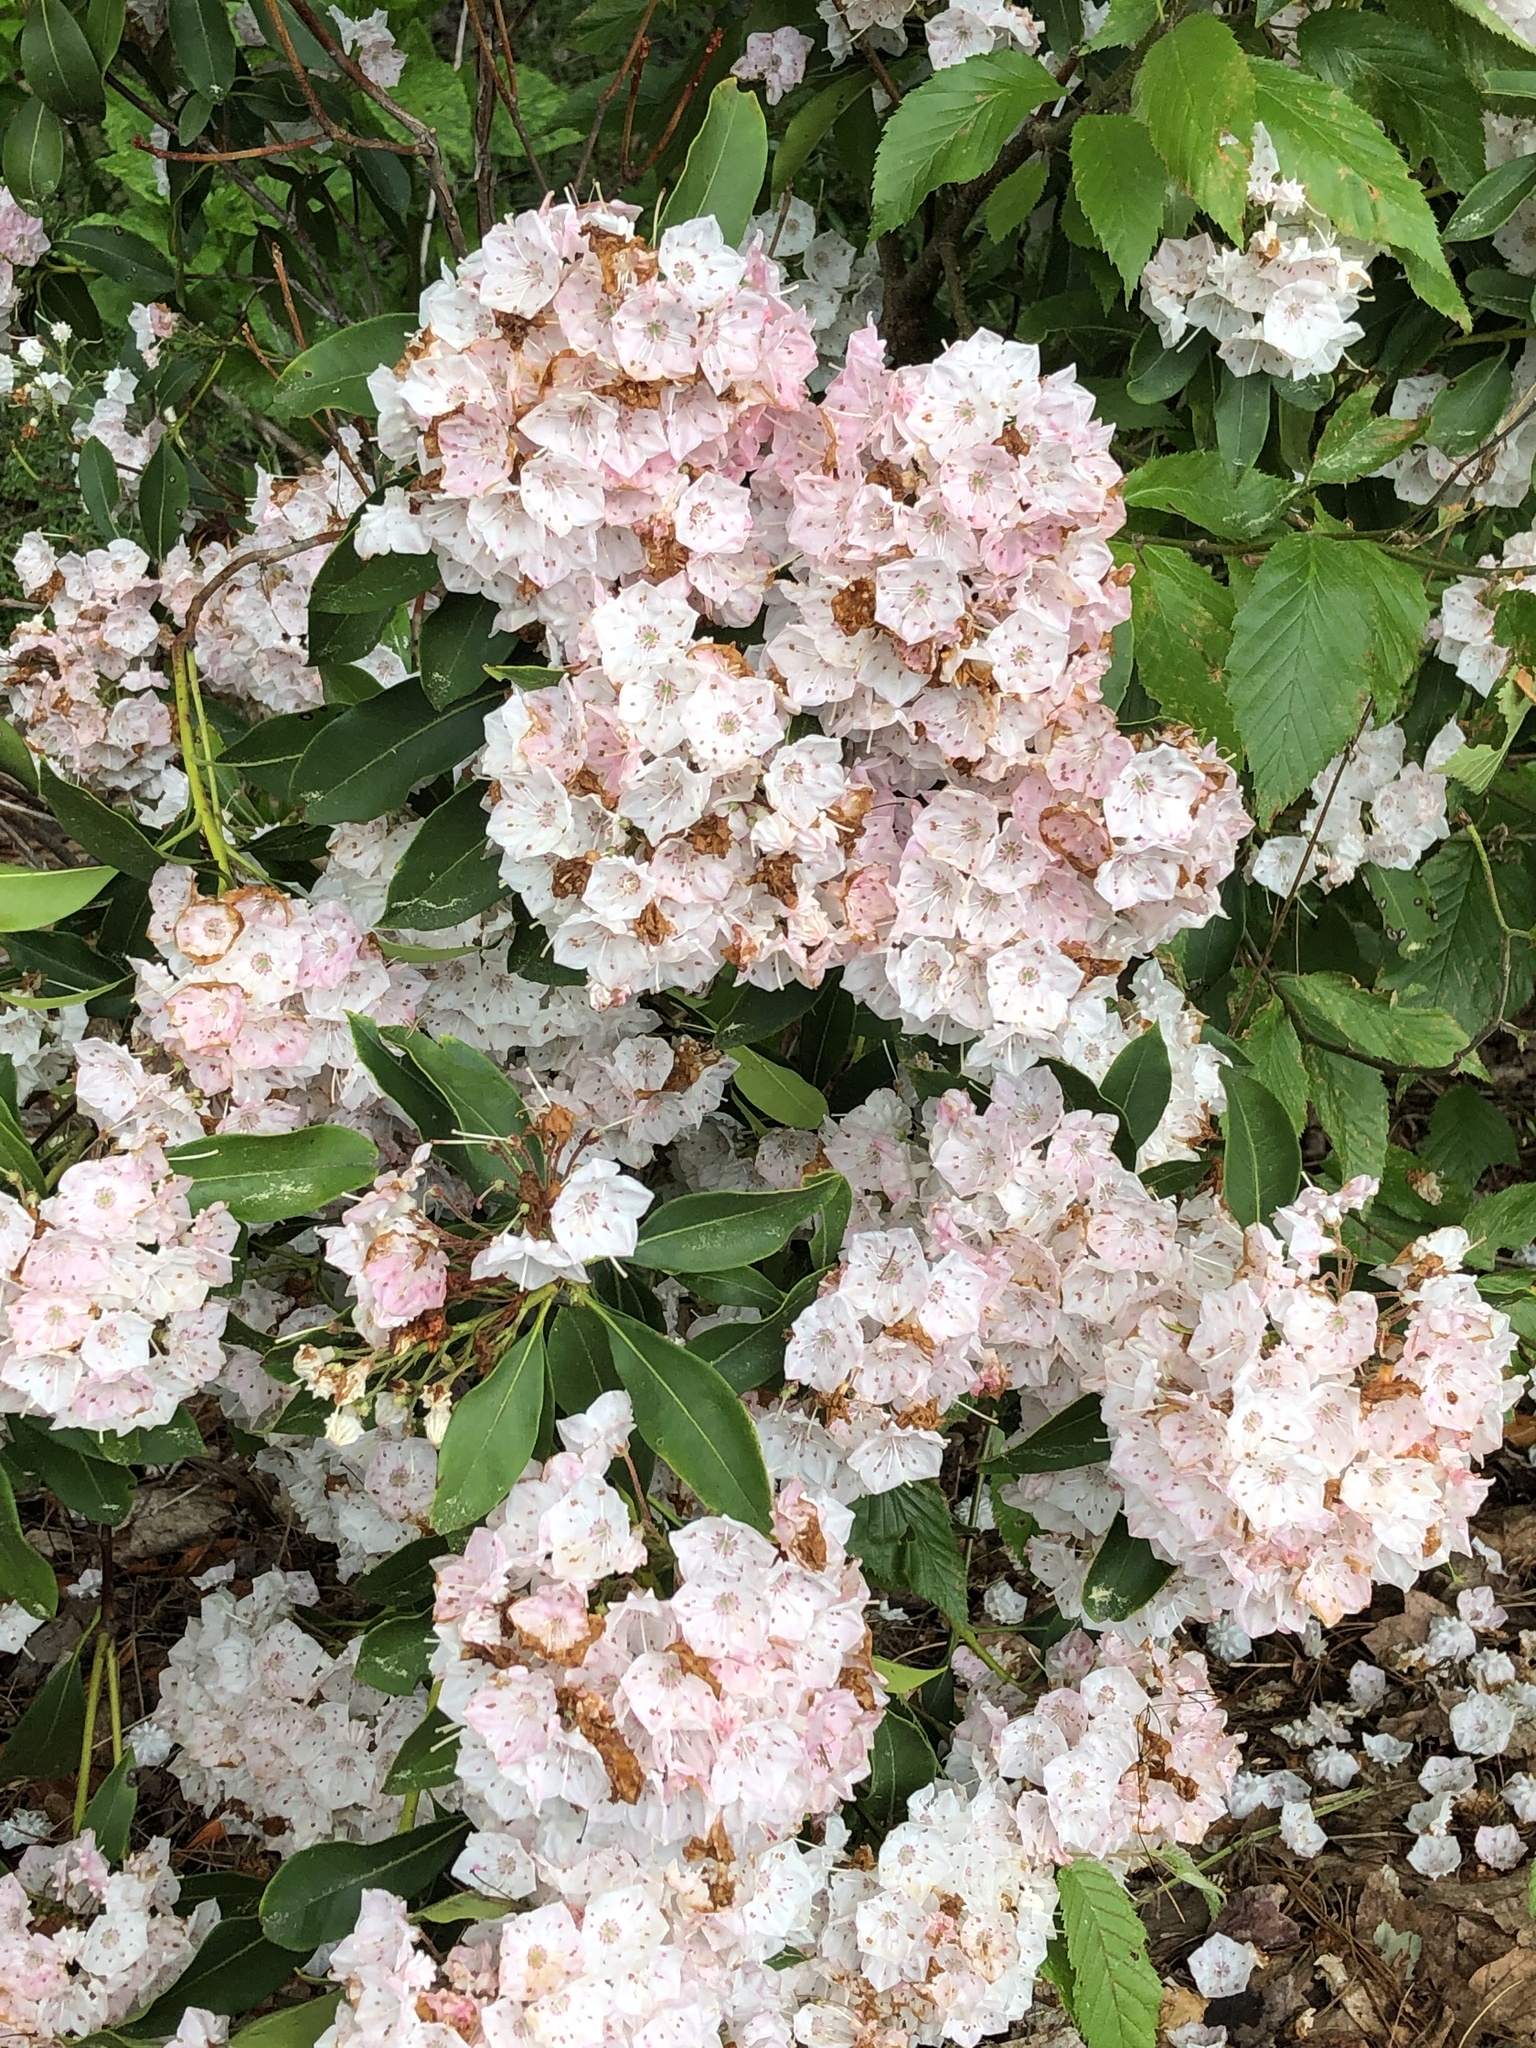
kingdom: Plantae
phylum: Tracheophyta
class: Magnoliopsida
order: Ericales
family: Ericaceae
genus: Kalmia
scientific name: Kalmia latifolia
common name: Mountain-laurel
